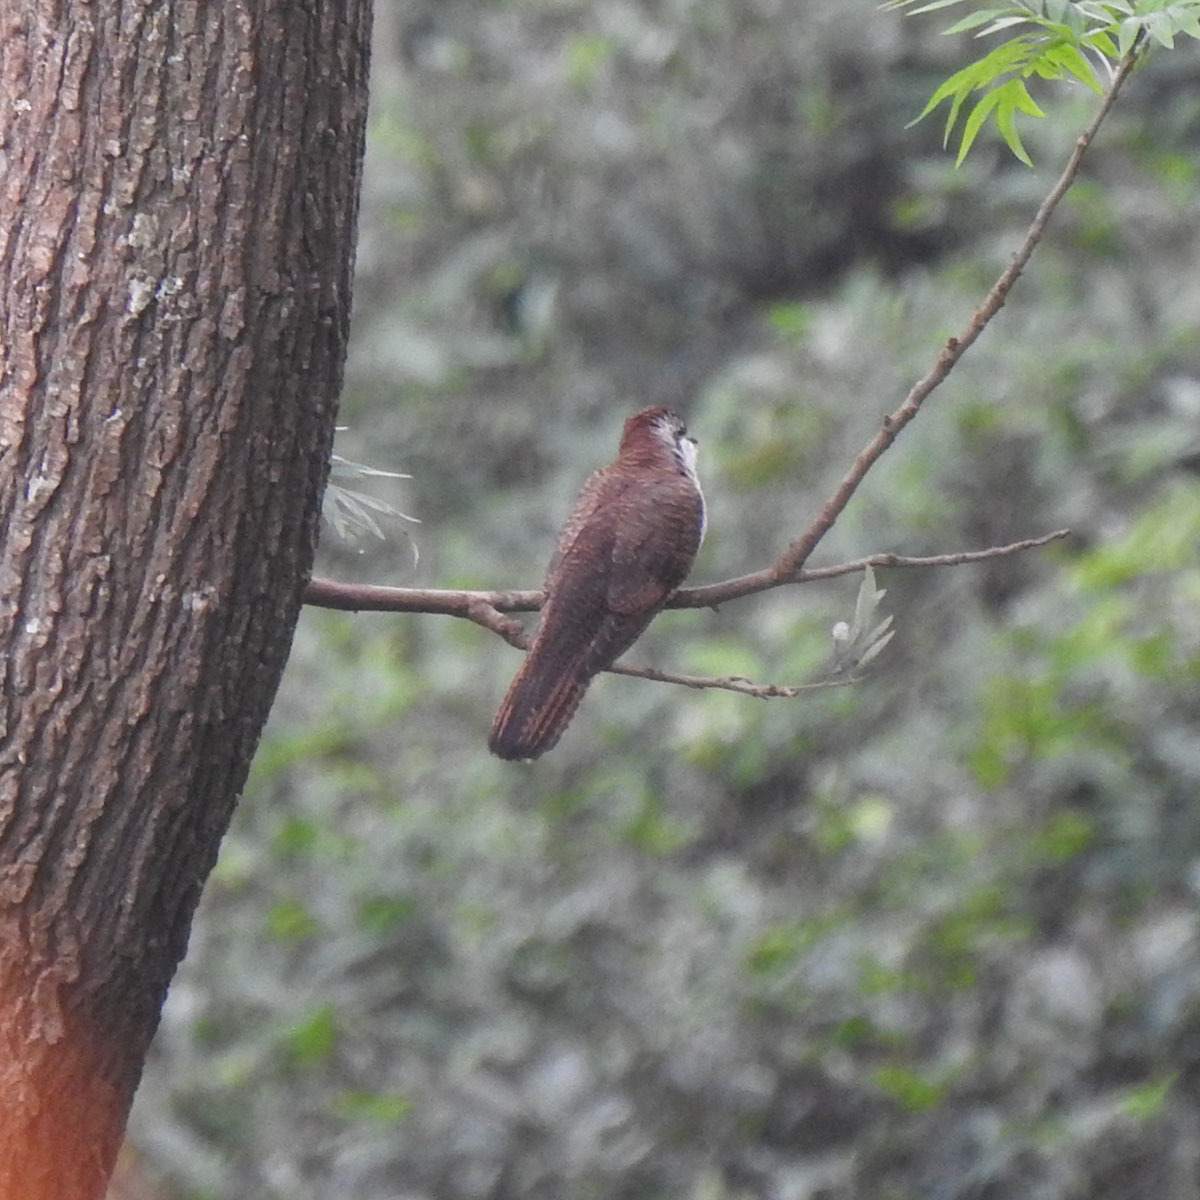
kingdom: Animalia
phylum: Chordata
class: Aves
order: Cuculiformes
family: Cuculidae
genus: Cacomantis
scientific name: Cacomantis sonneratii
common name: Banded bay cuckoo
